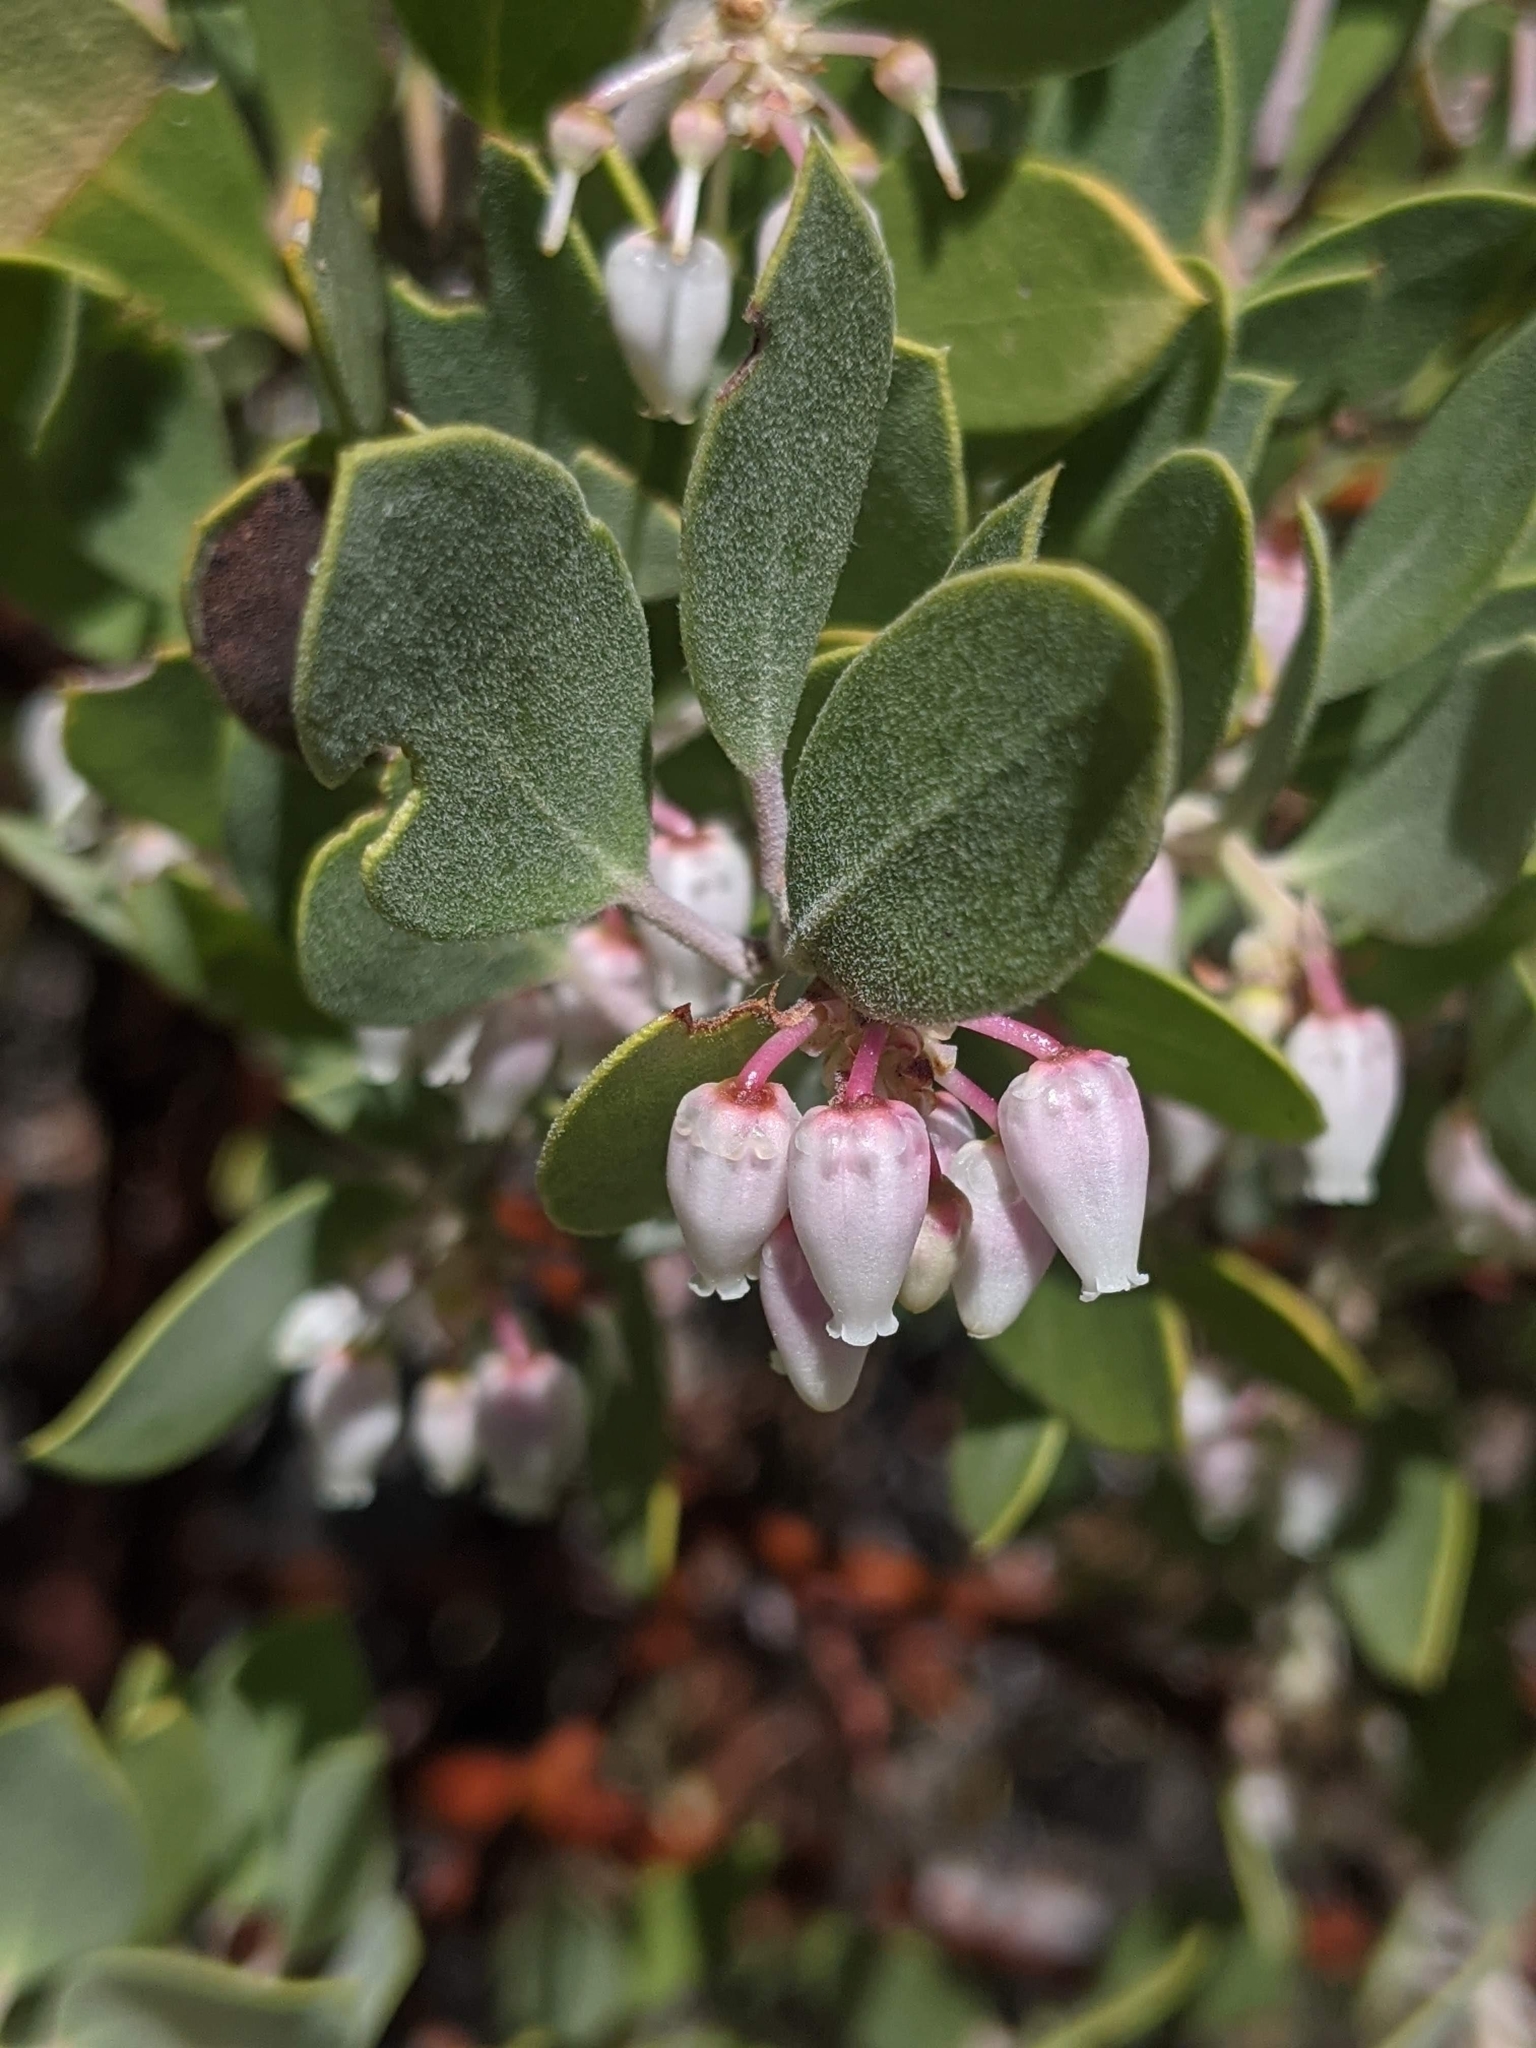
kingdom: Plantae
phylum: Tracheophyta
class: Magnoliopsida
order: Ericales
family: Ericaceae
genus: Arctostaphylos
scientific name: Arctostaphylos pungens
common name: Mexican manzanita
